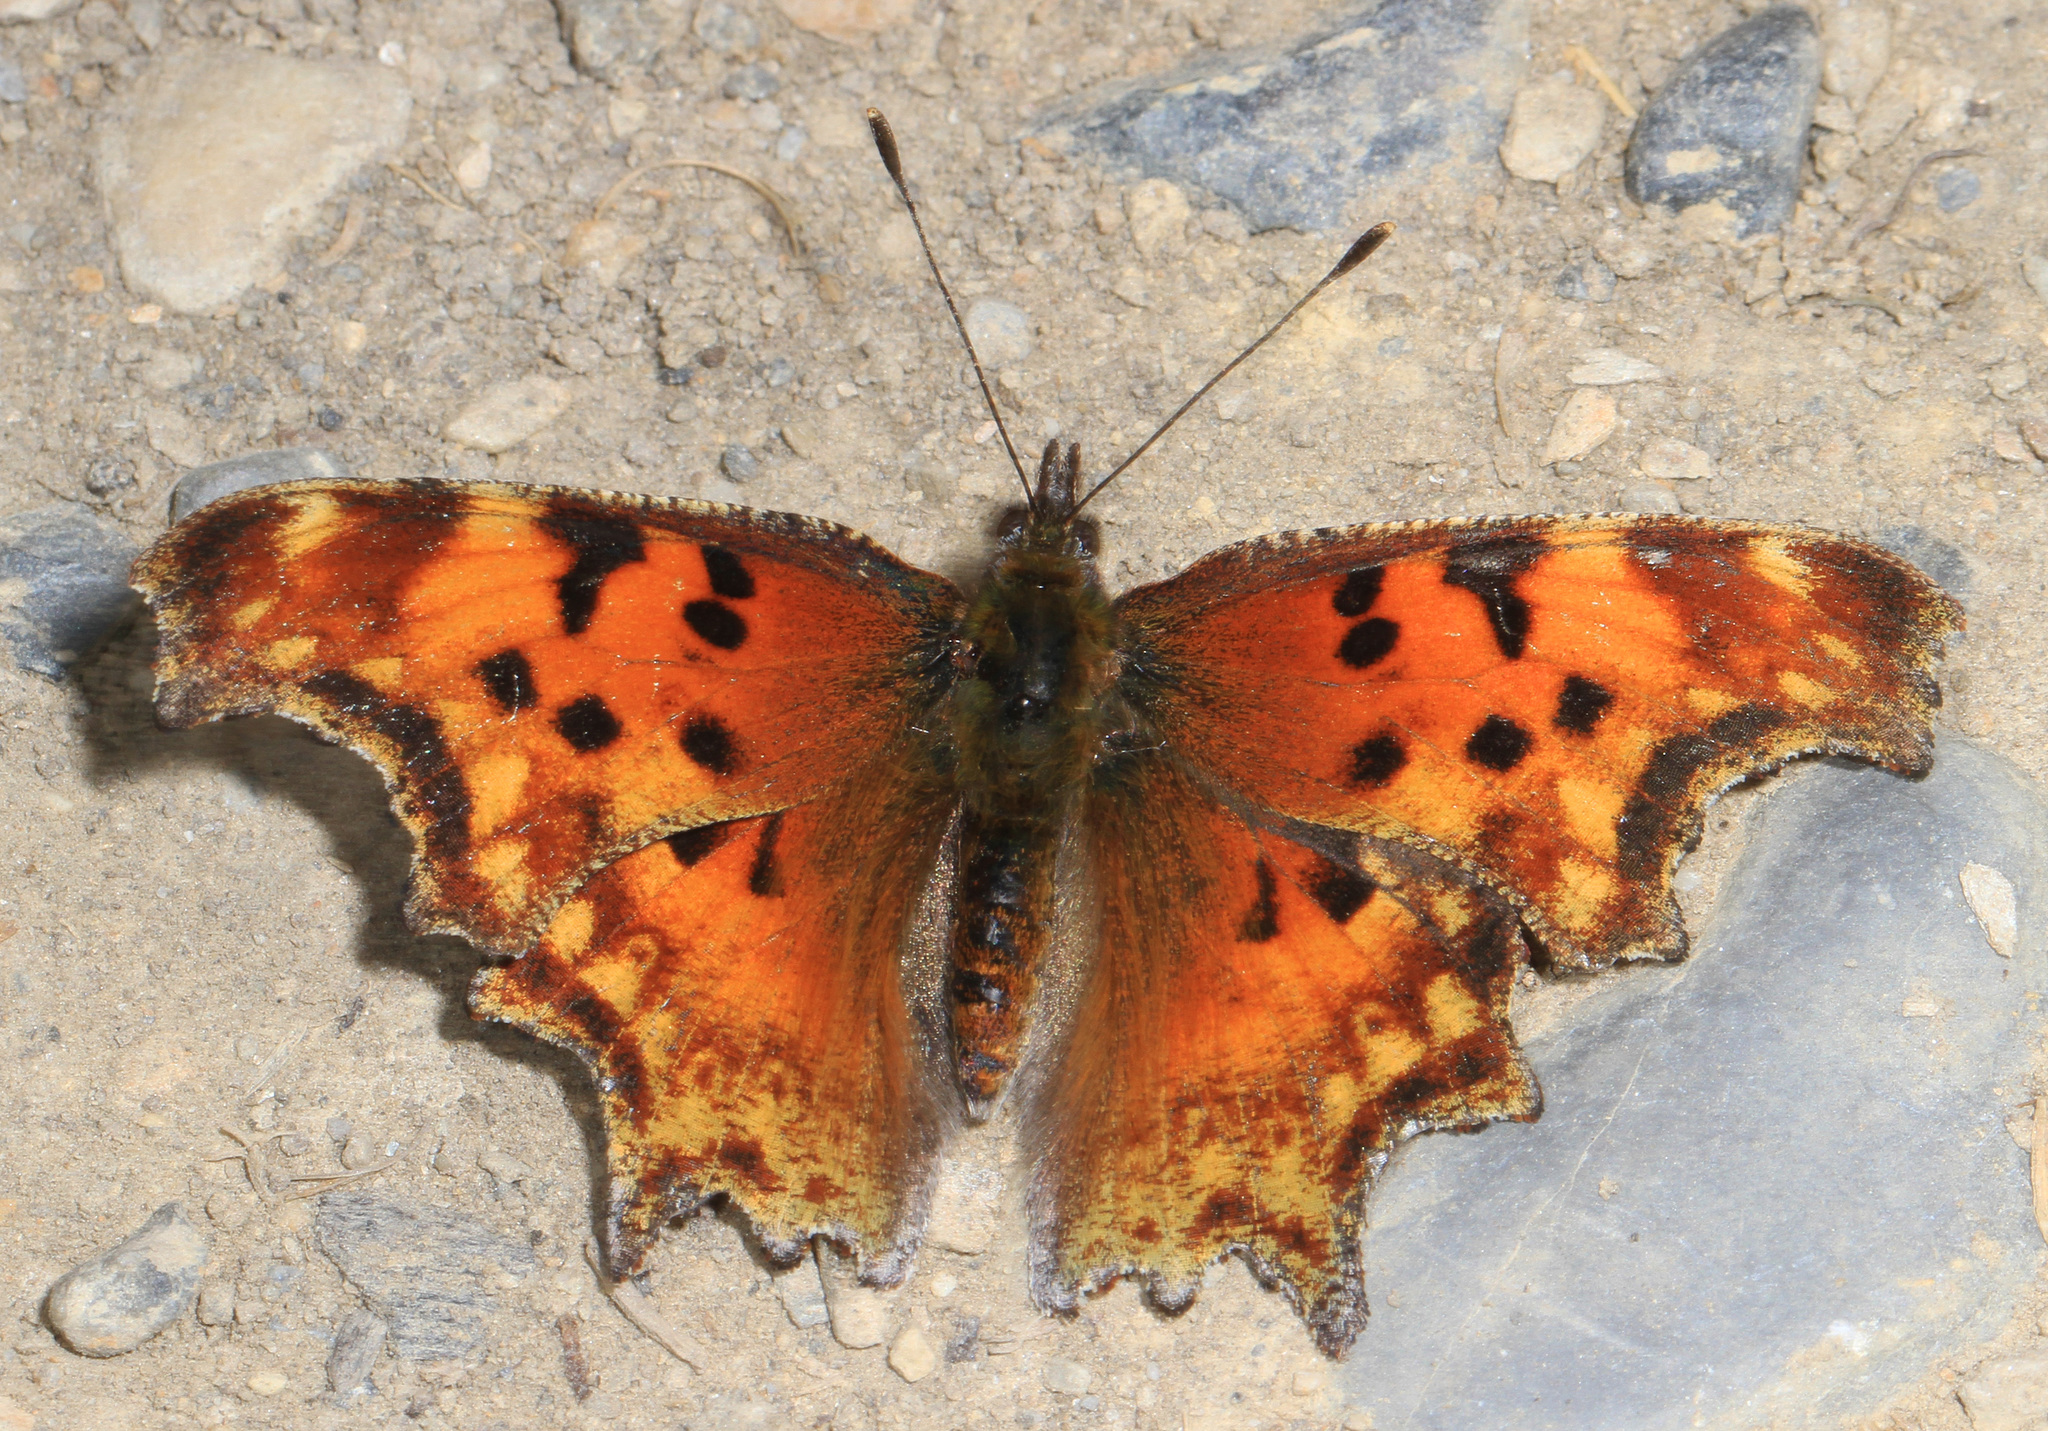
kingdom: Animalia
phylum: Arthropoda
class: Insecta
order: Lepidoptera
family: Nymphalidae
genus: Polygonia
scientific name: Polygonia gracilis
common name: Hoary comma
